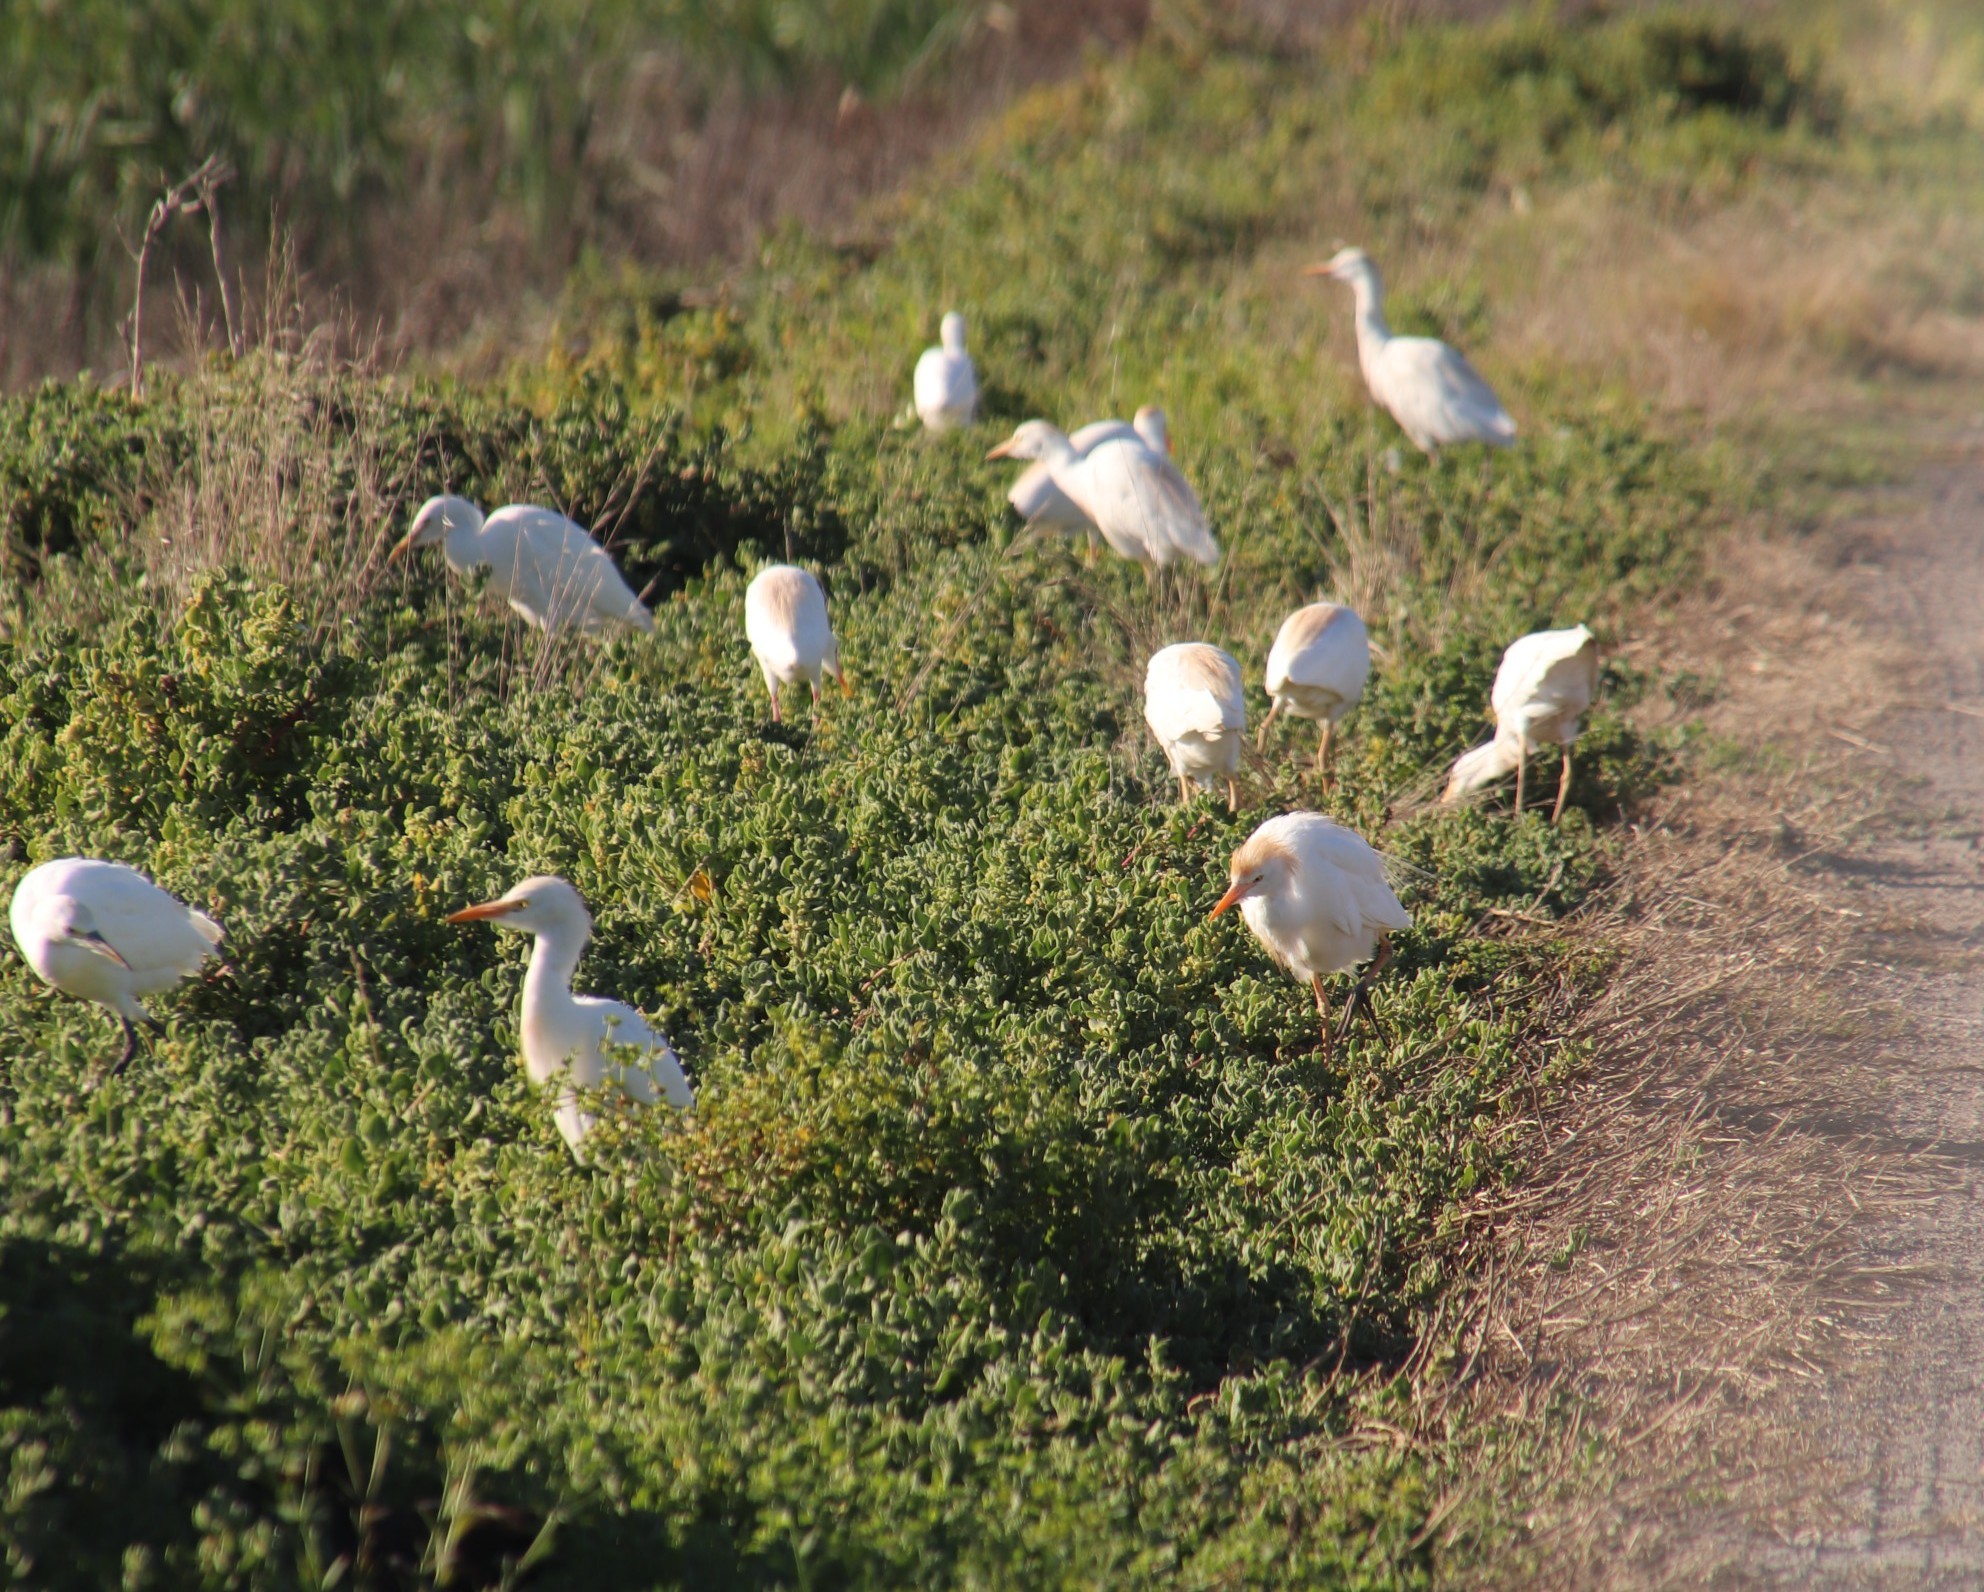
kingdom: Animalia
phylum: Chordata
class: Aves
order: Pelecaniformes
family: Ardeidae
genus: Bubulcus
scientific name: Bubulcus ibis
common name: Cattle egret
